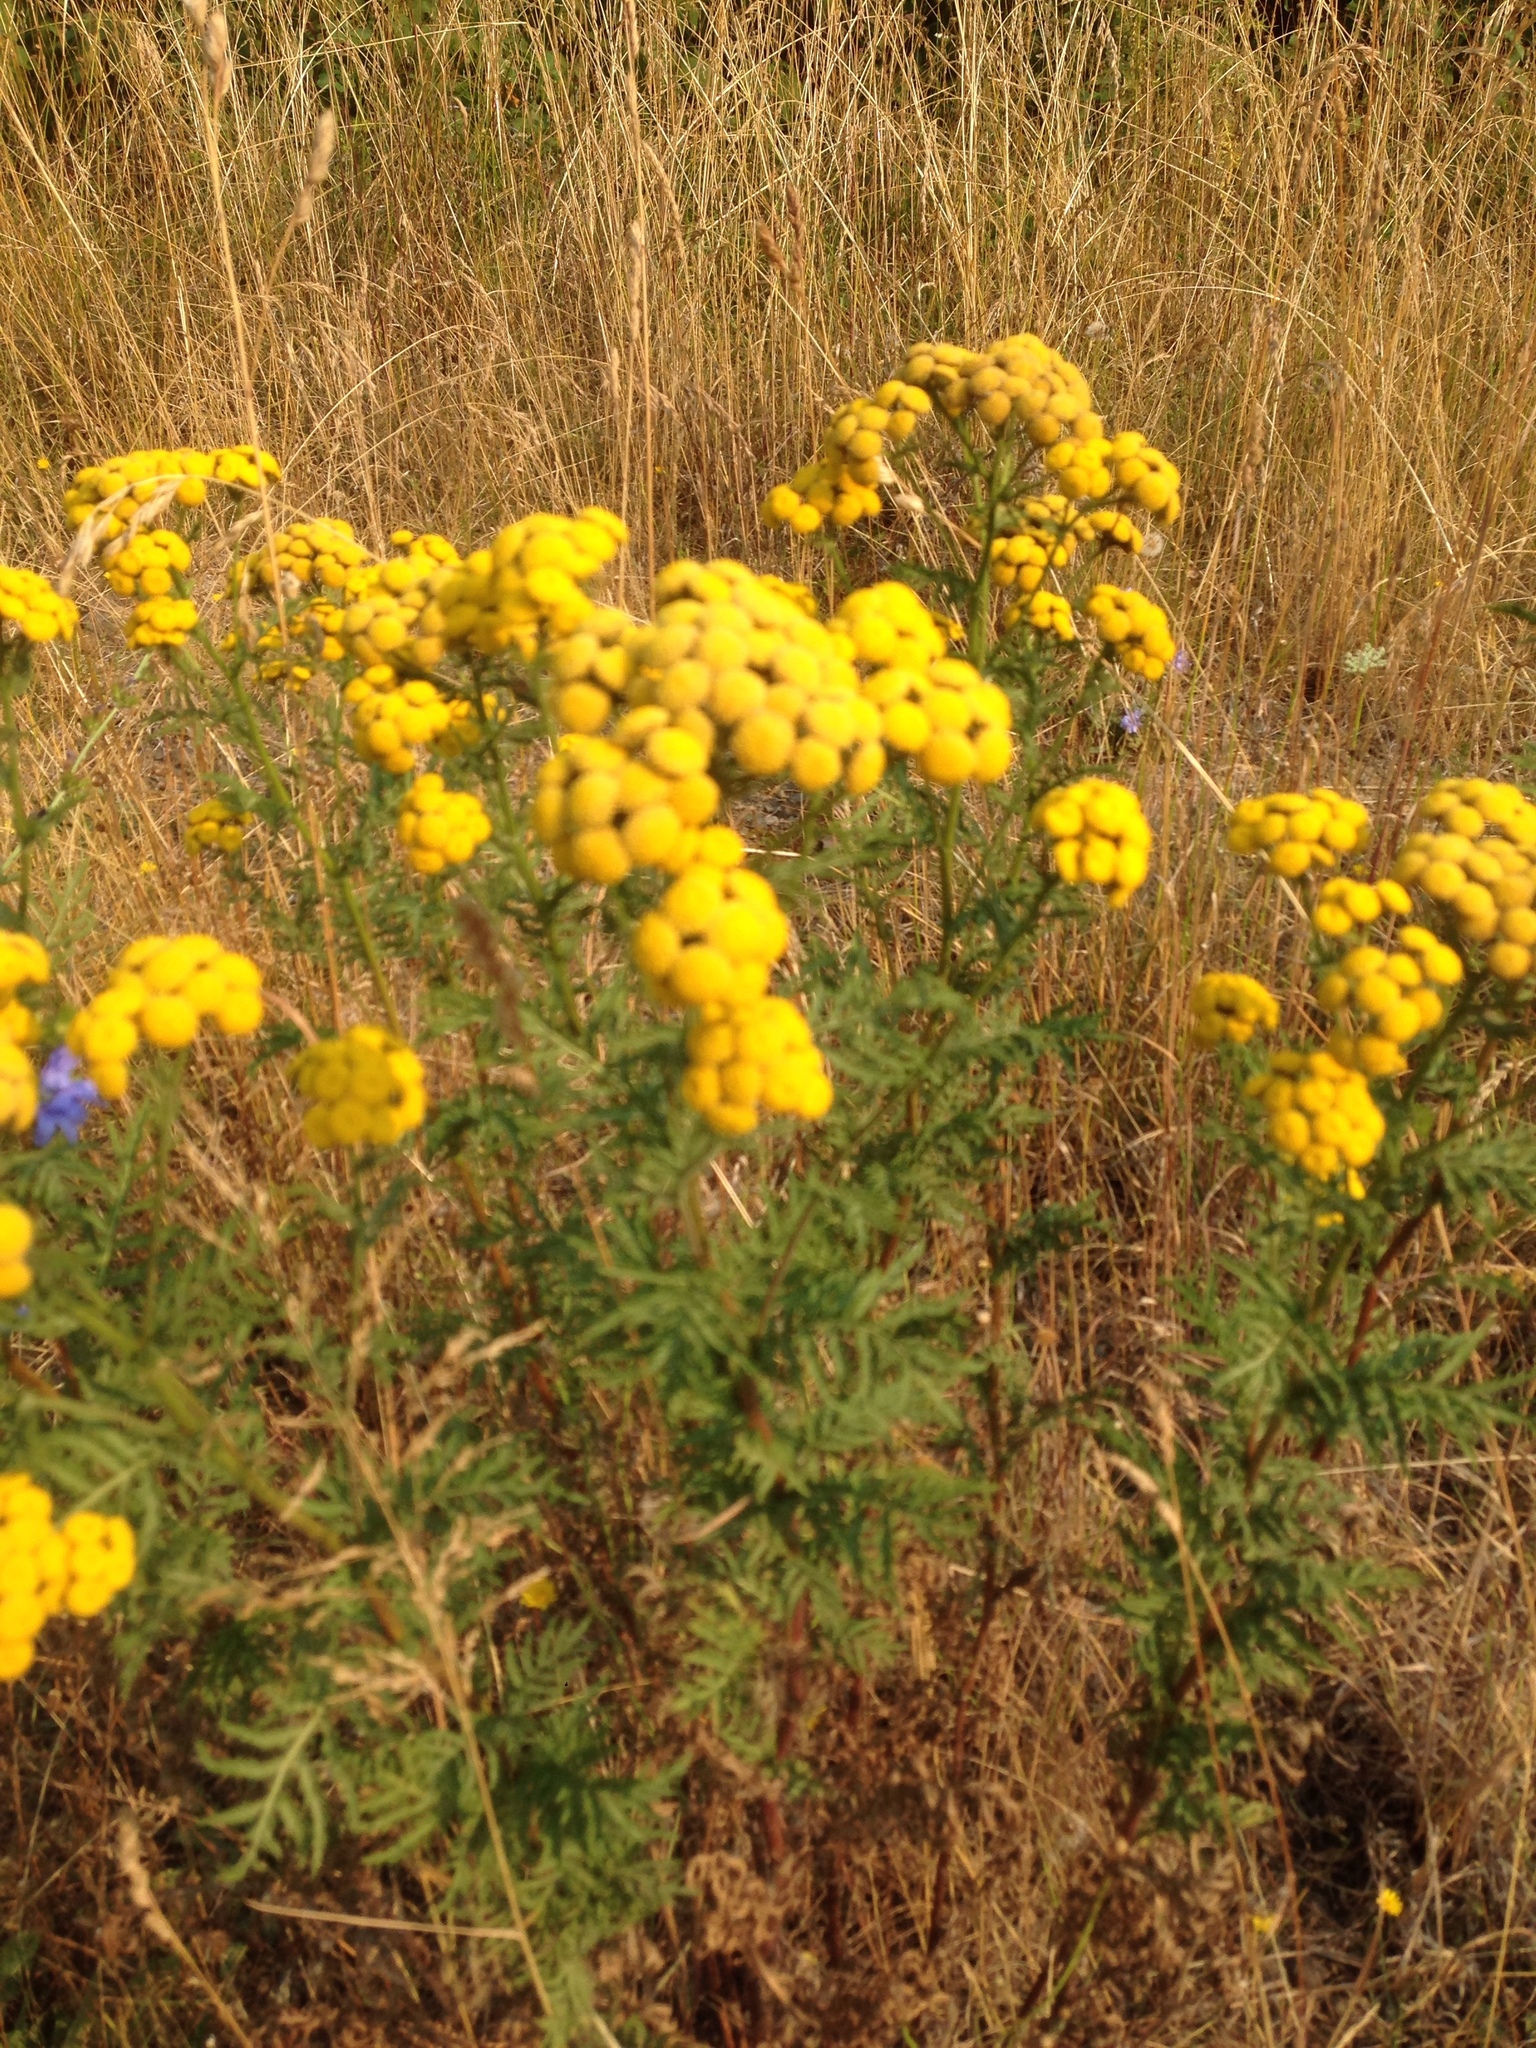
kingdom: Plantae
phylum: Tracheophyta
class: Magnoliopsida
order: Asterales
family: Asteraceae
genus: Tanacetum
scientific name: Tanacetum vulgare
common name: Common tansy
